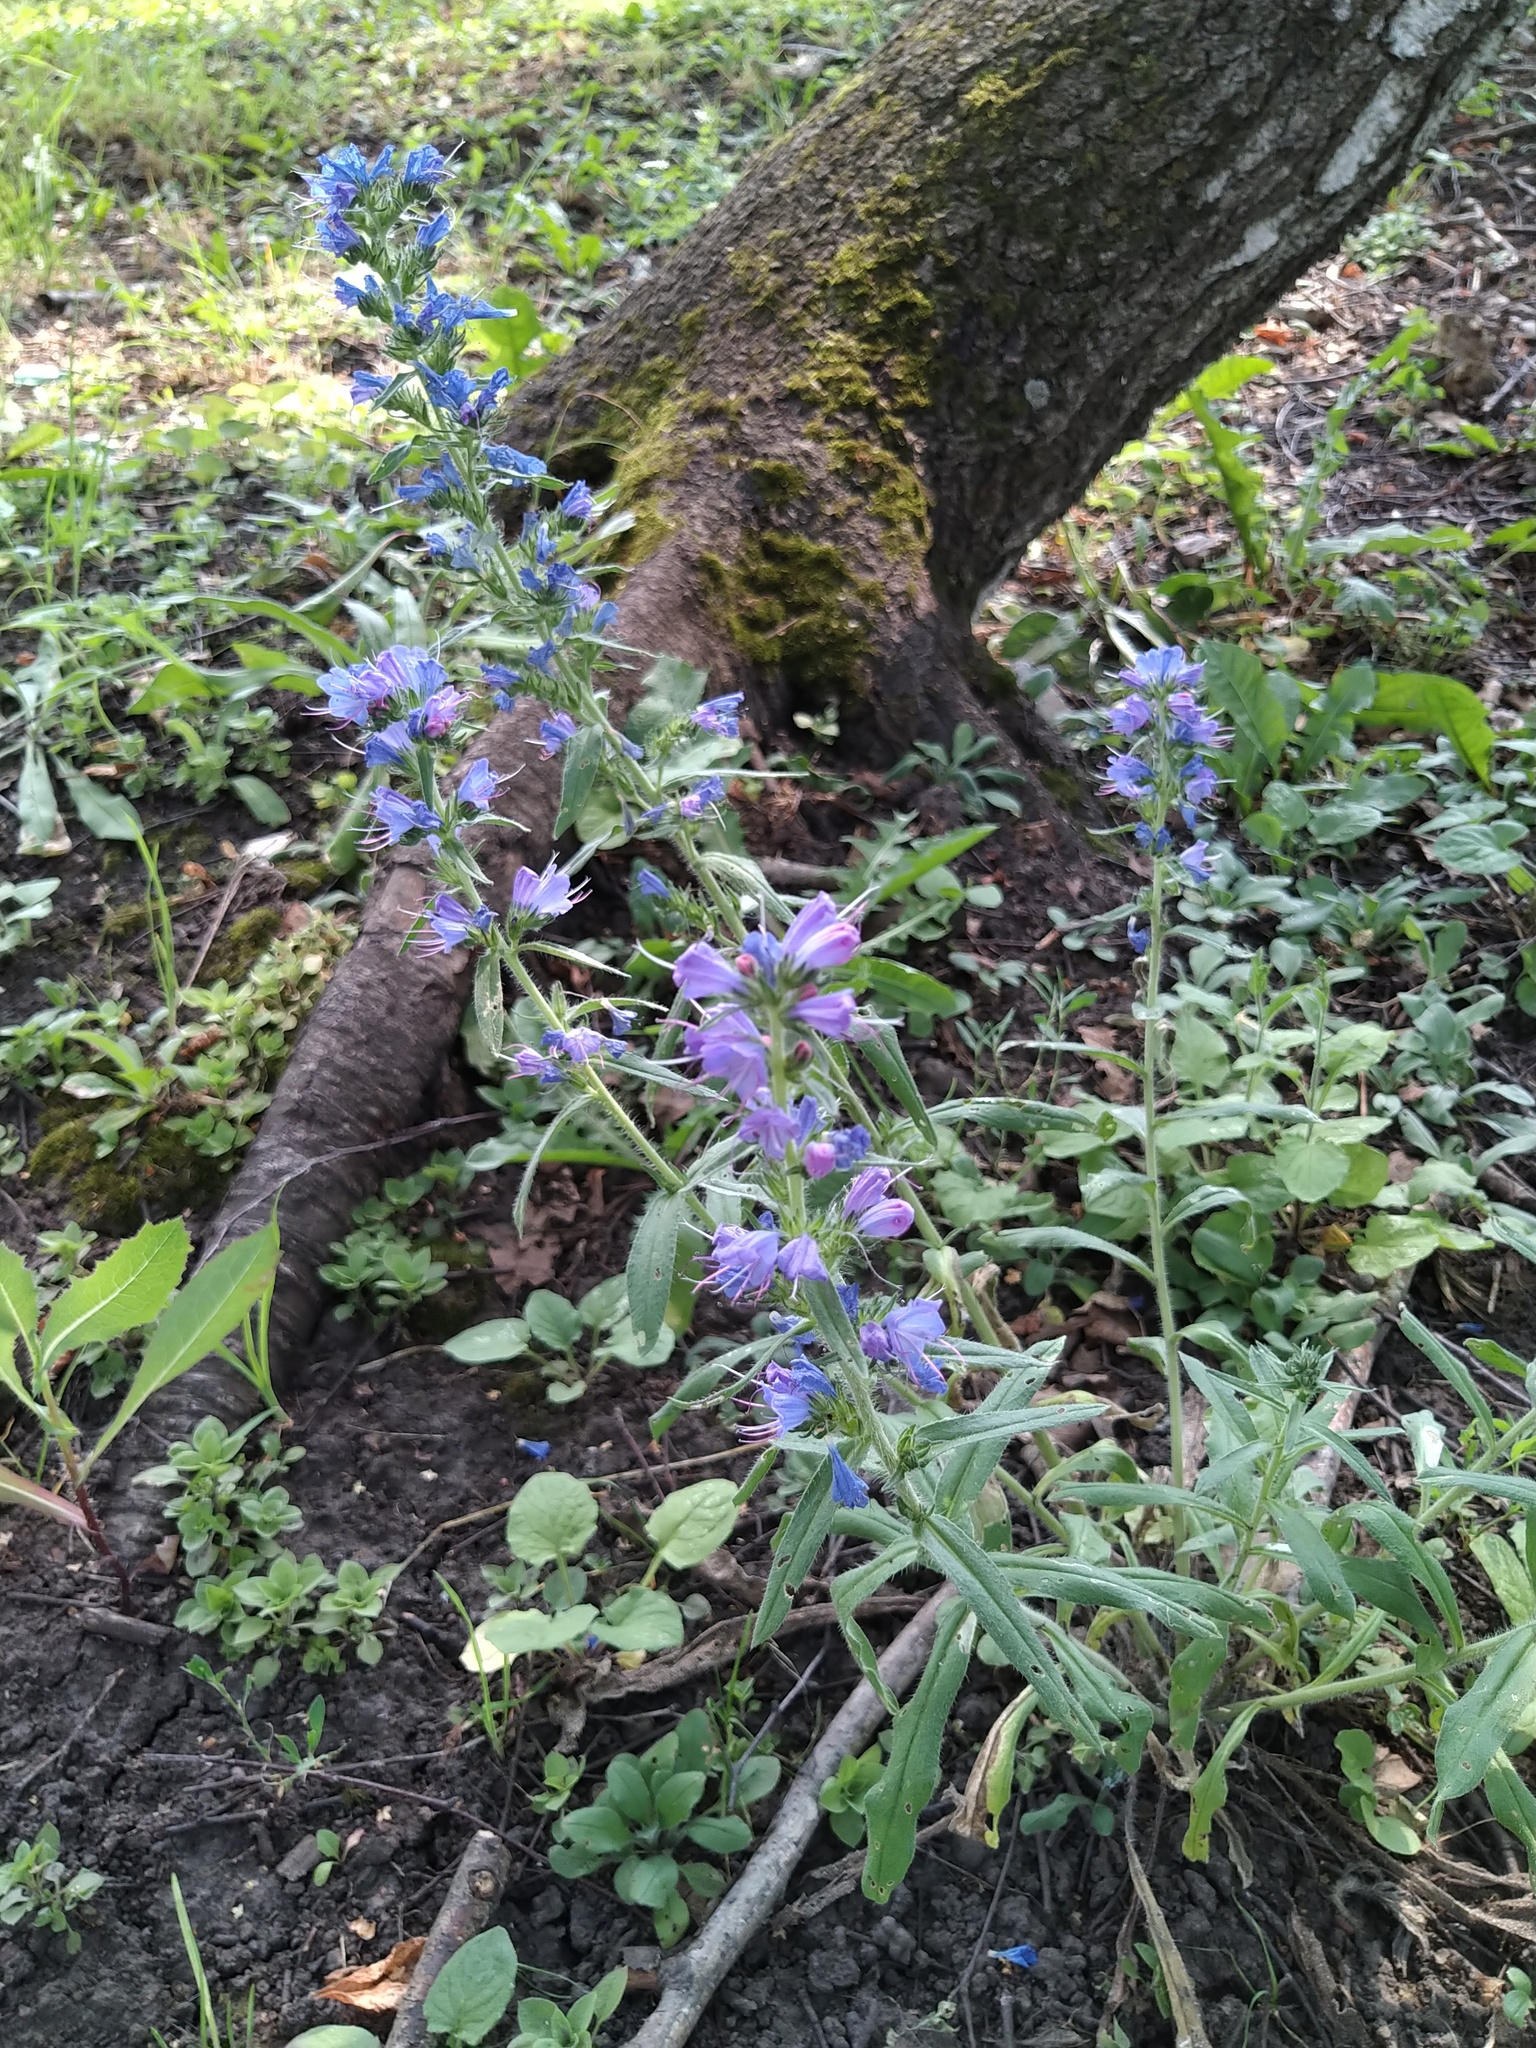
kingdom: Plantae
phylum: Tracheophyta
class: Magnoliopsida
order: Boraginales
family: Boraginaceae
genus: Echium
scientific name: Echium vulgare
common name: Common viper's bugloss
